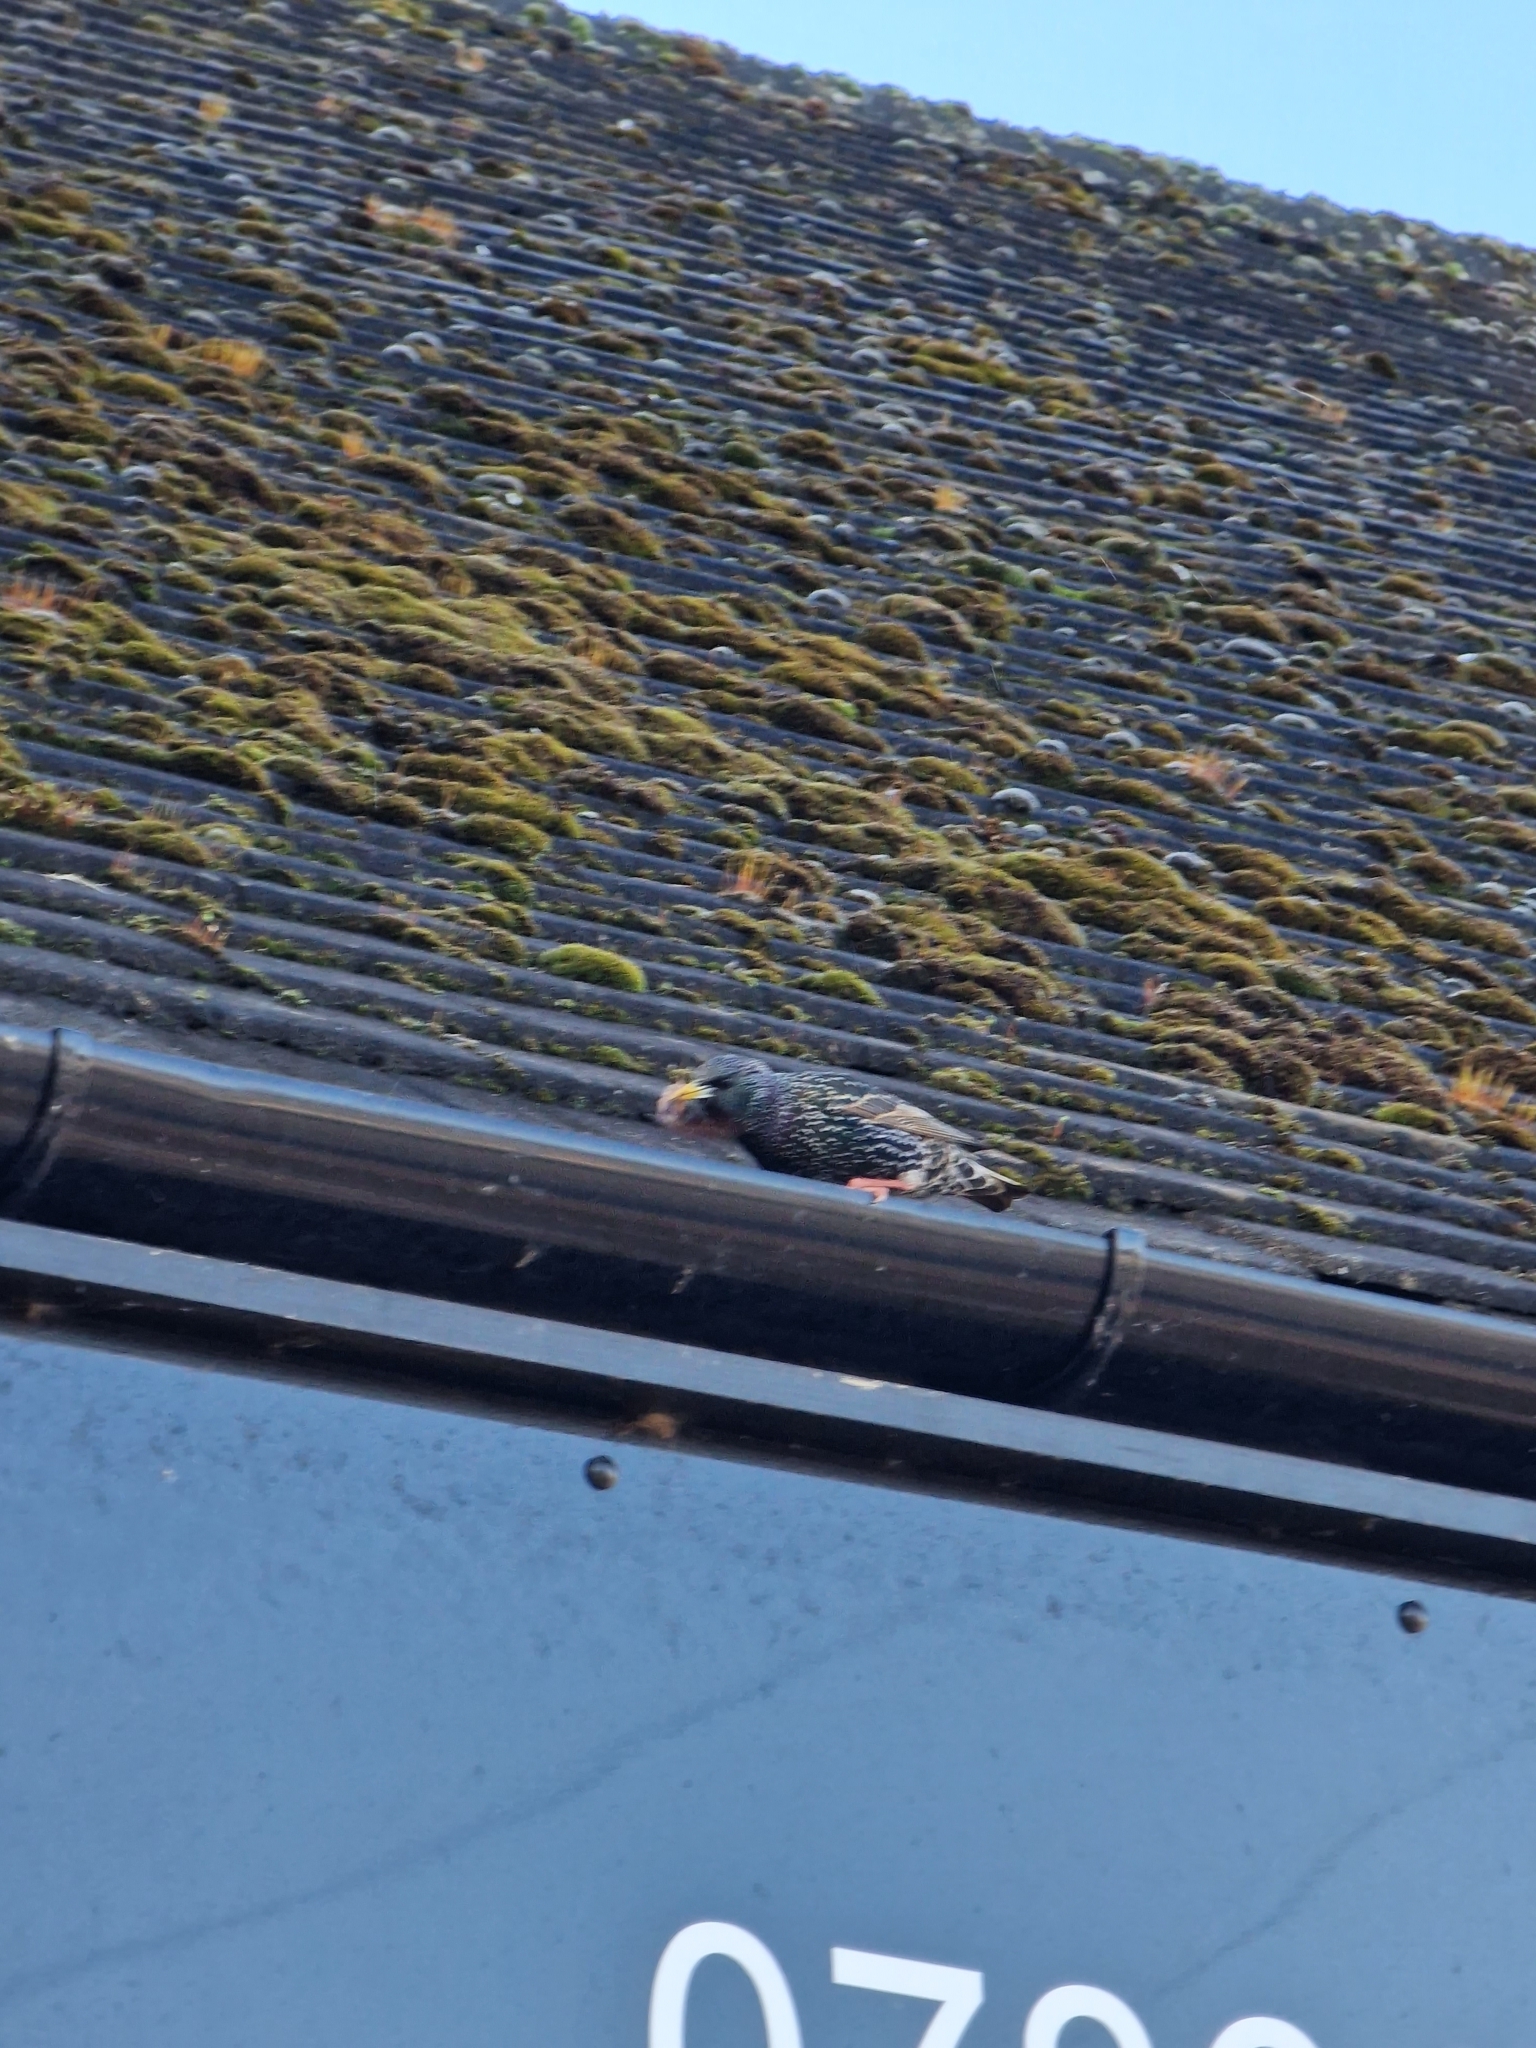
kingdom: Animalia
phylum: Chordata
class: Aves
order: Passeriformes
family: Sturnidae
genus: Sturnus
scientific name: Sturnus vulgaris
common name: Common starling
